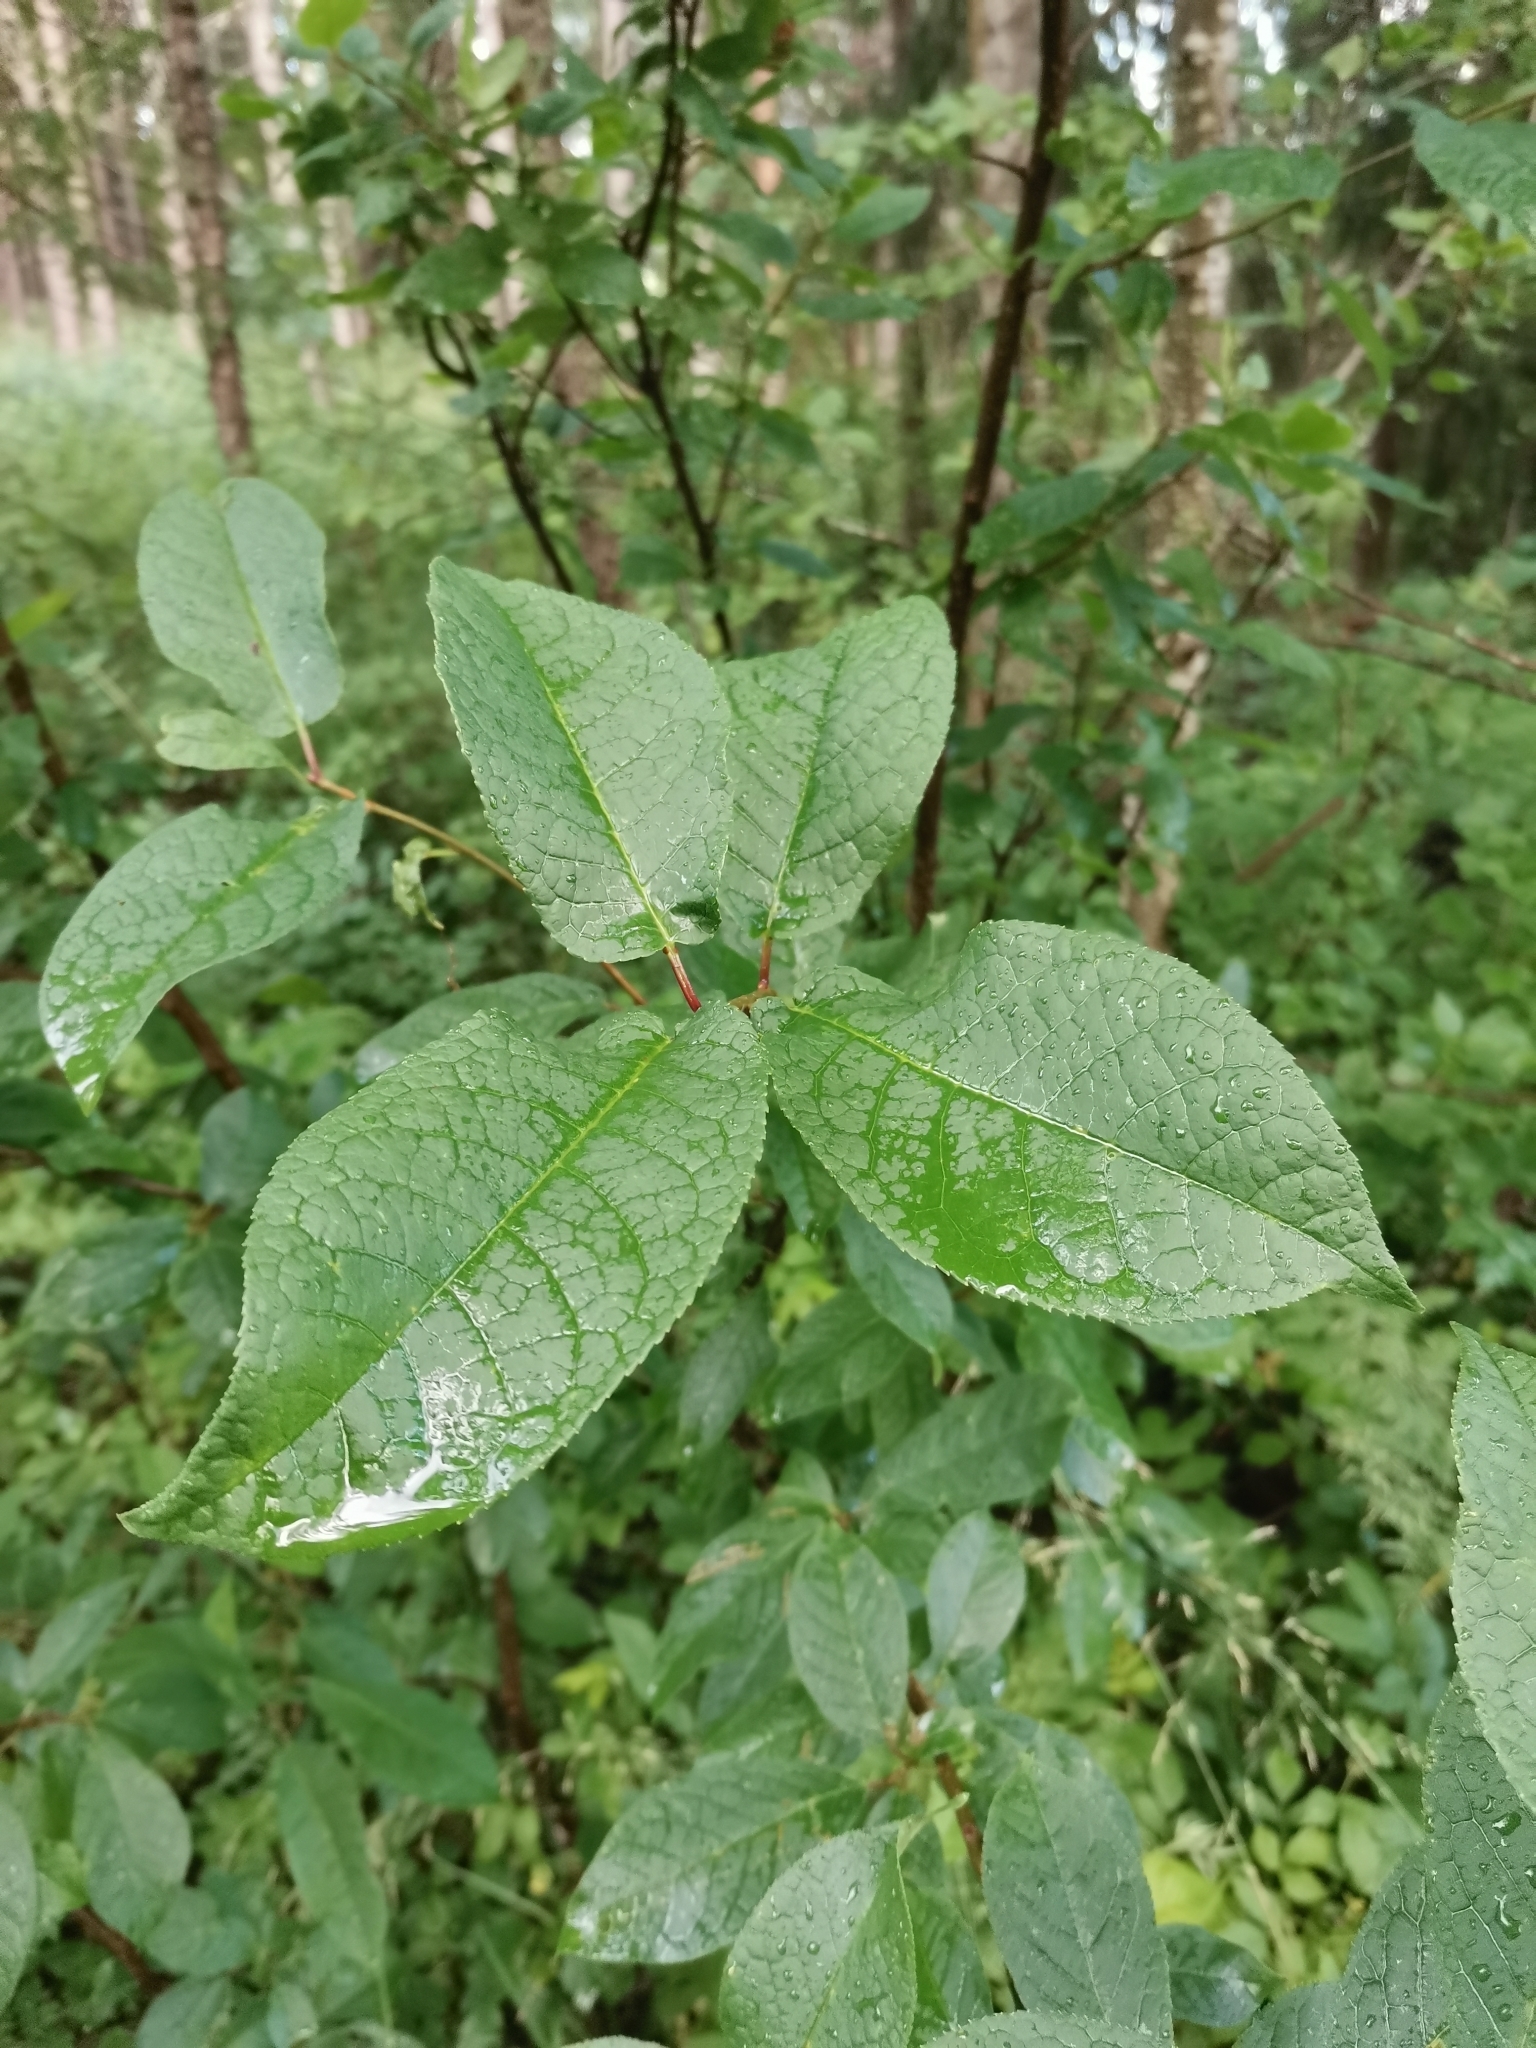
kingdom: Plantae
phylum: Tracheophyta
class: Magnoliopsida
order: Rosales
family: Rosaceae
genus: Prunus
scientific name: Prunus padus
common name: Bird cherry
